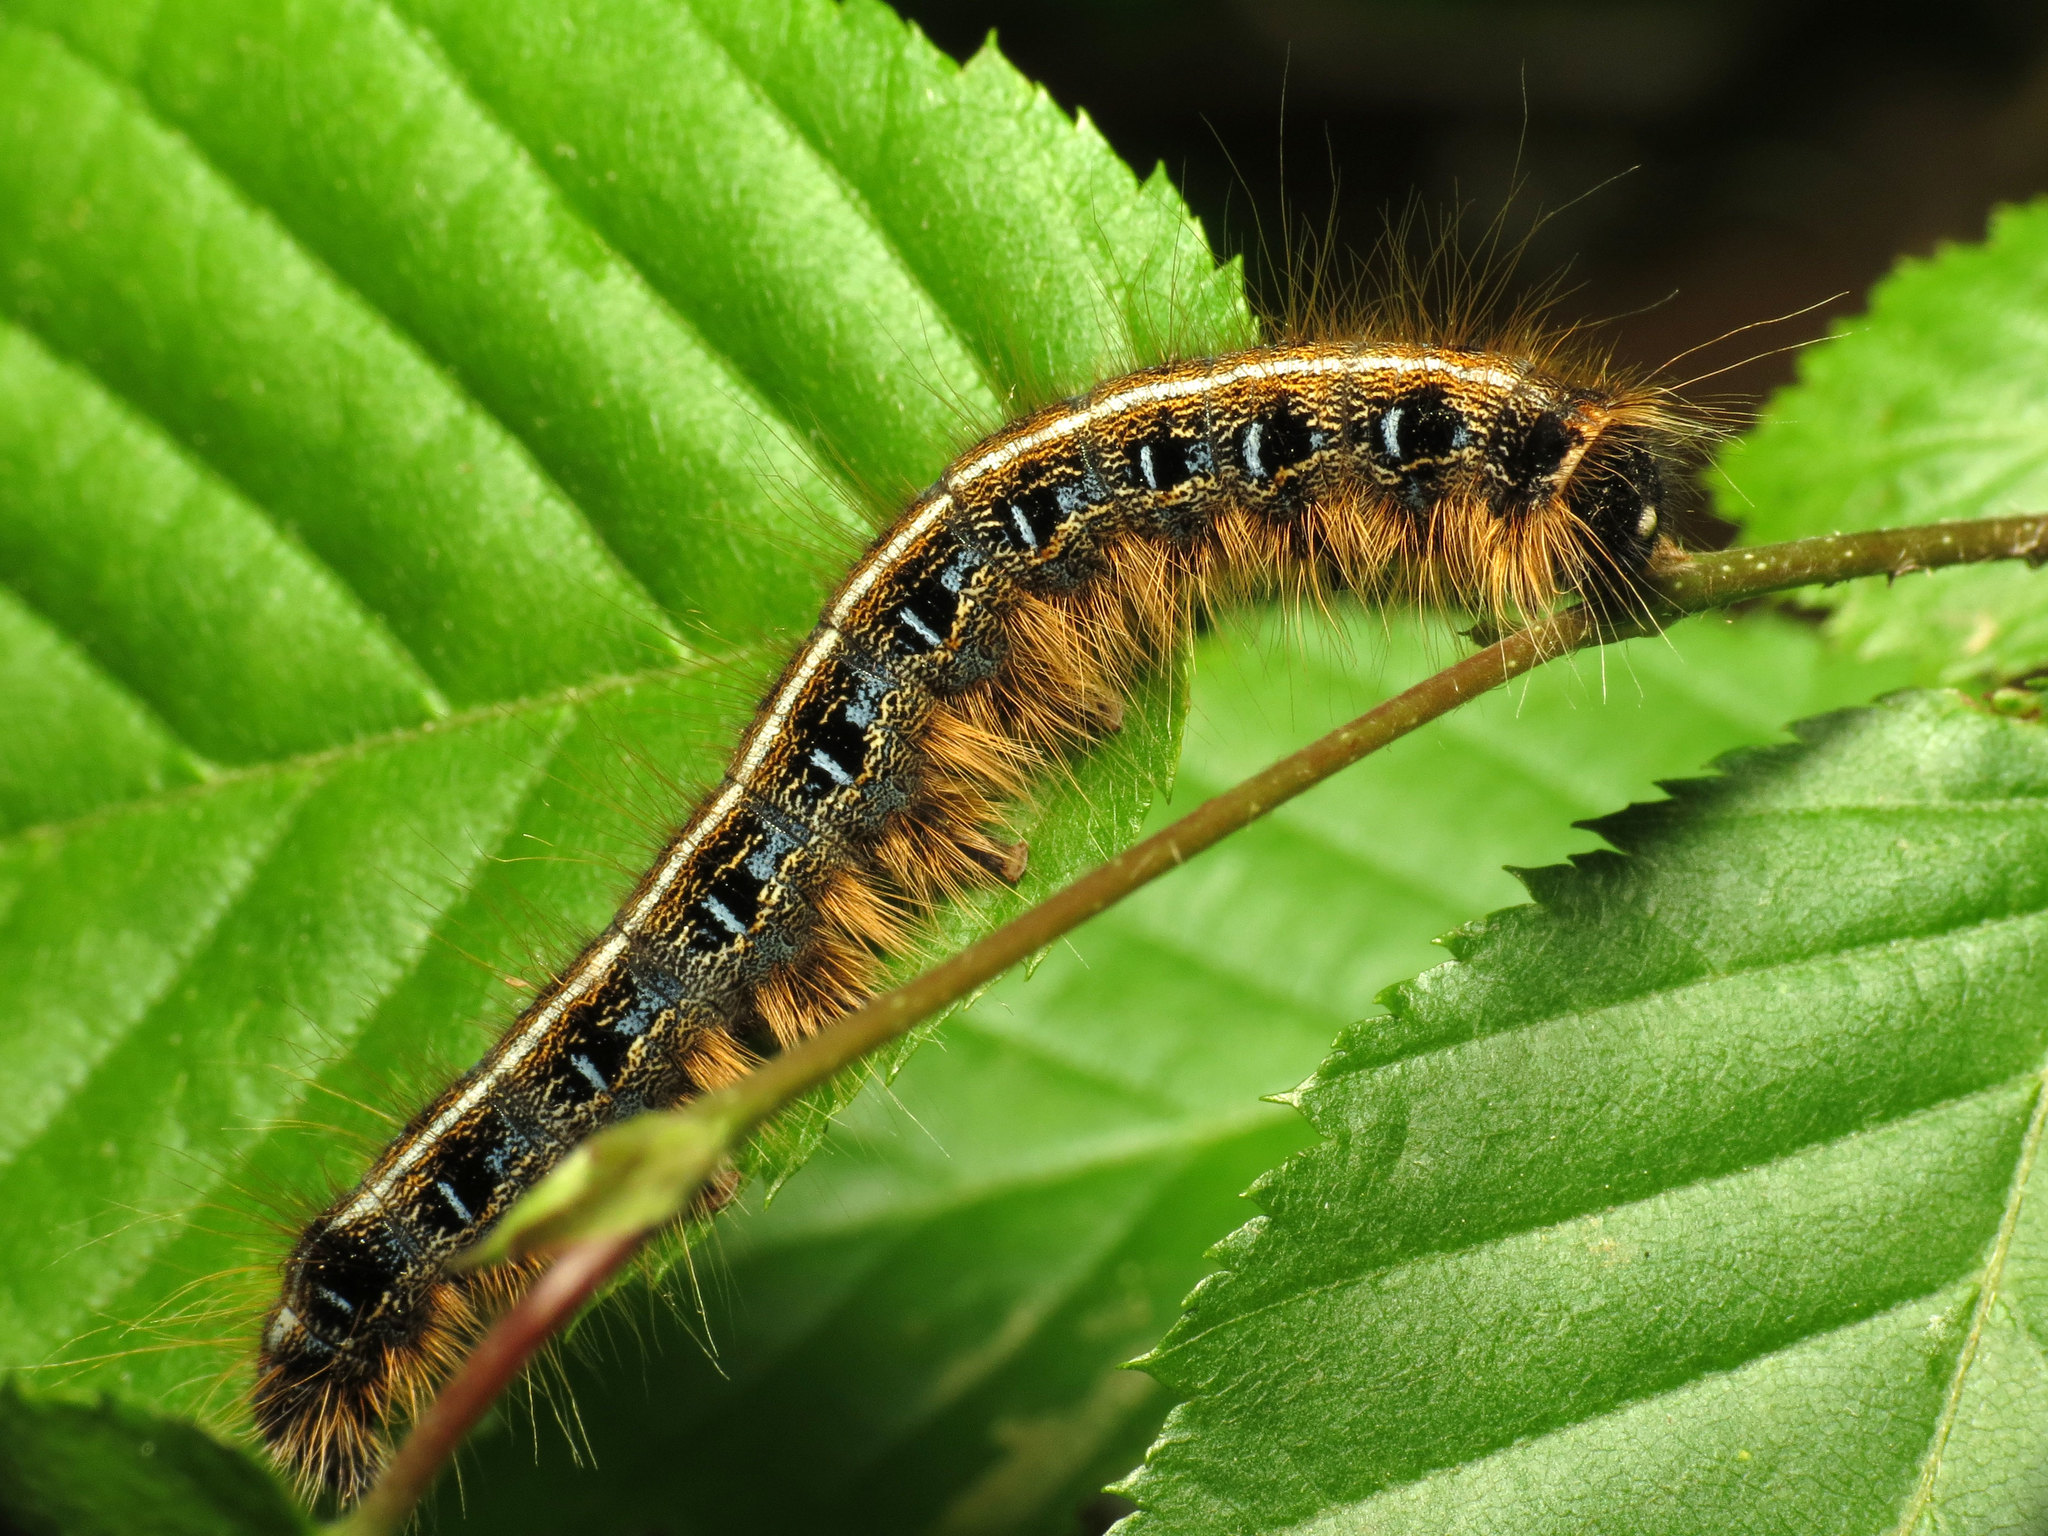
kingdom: Animalia
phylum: Arthropoda
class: Insecta
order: Lepidoptera
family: Lasiocampidae
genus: Malacosoma
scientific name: Malacosoma americana
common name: Eastern tent caterpillar moth
